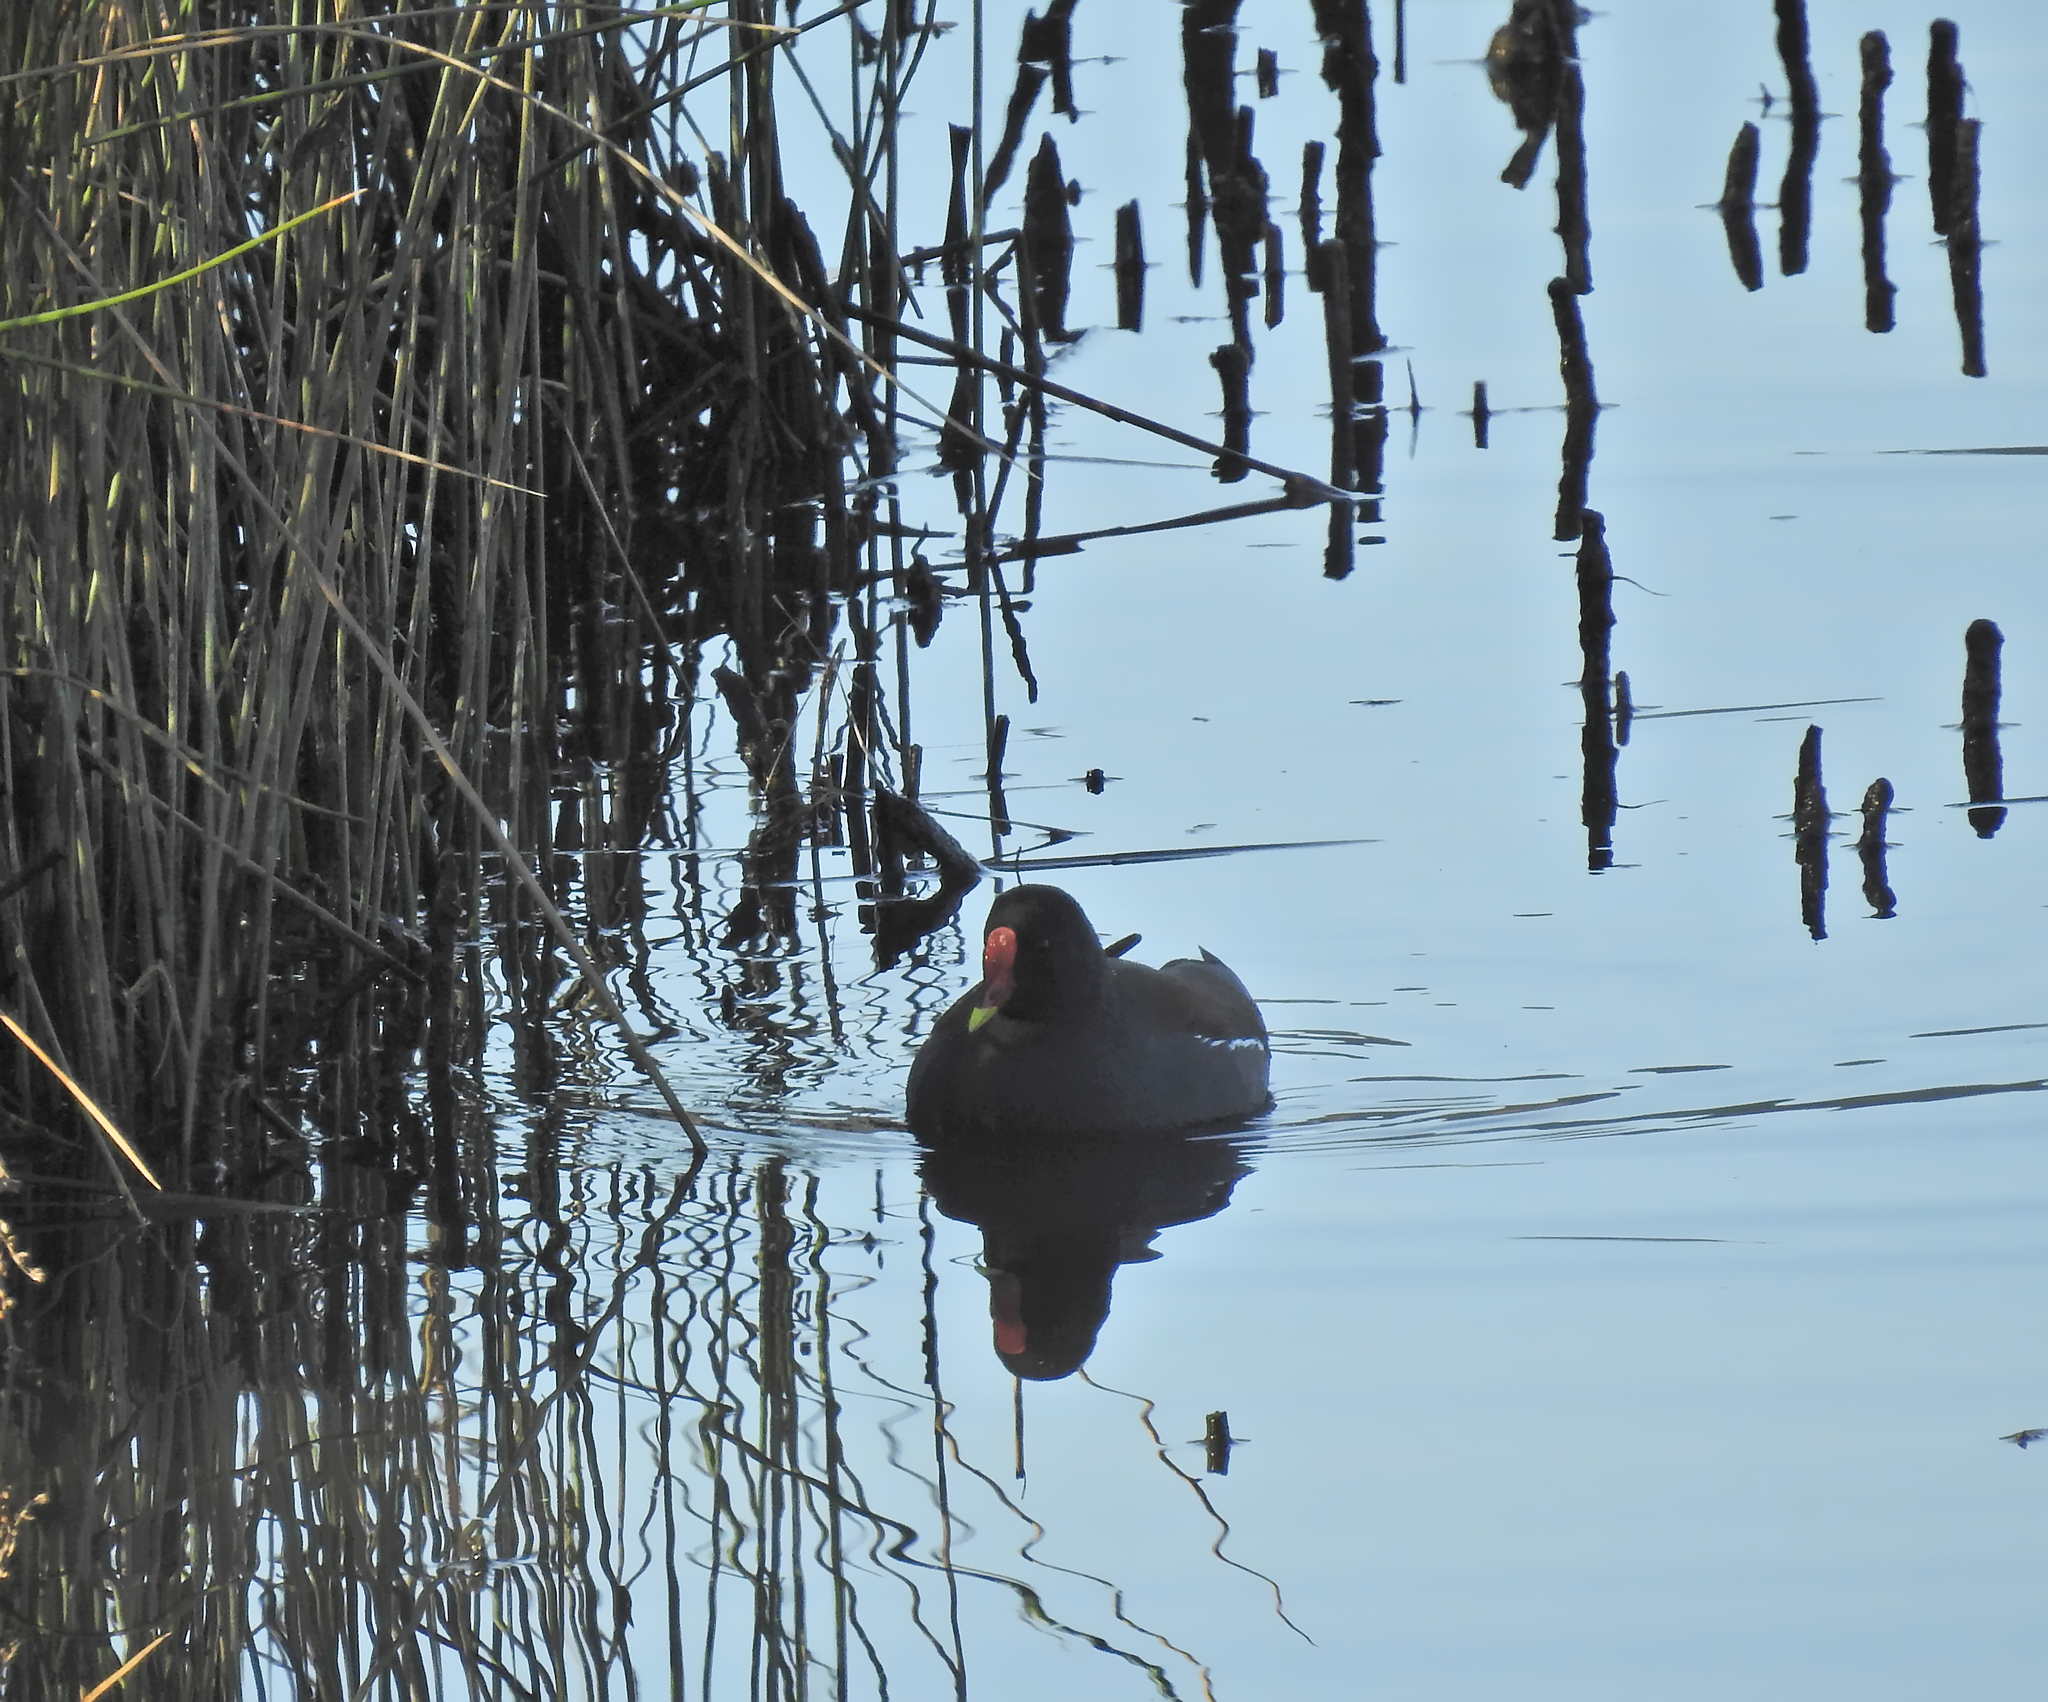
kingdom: Animalia
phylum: Chordata
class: Aves
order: Gruiformes
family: Rallidae
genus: Gallinula
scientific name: Gallinula chloropus
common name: Common moorhen
